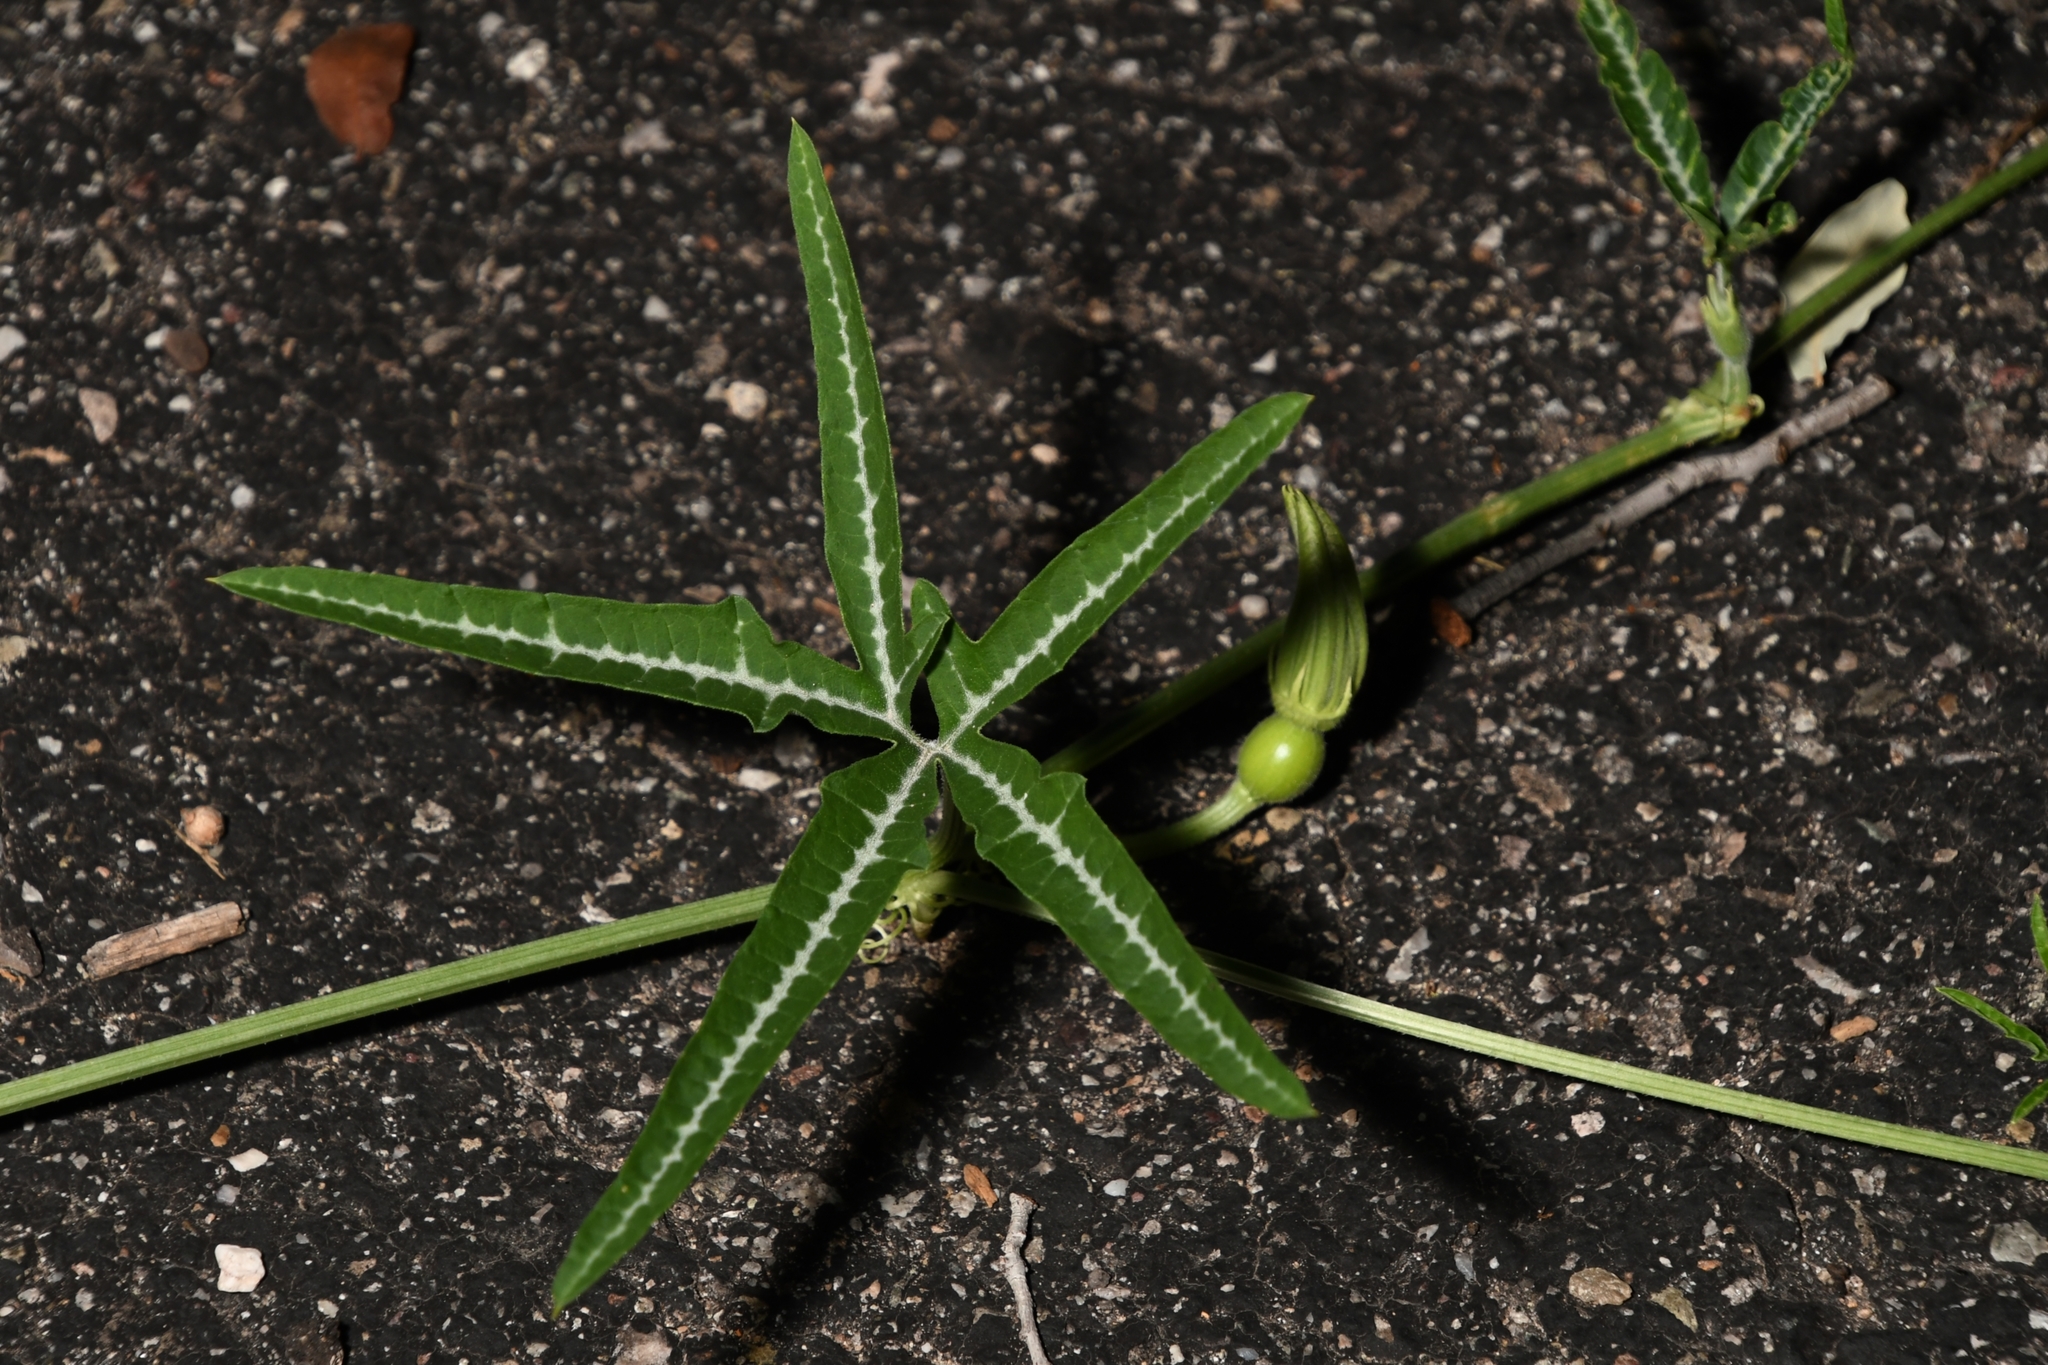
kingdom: Plantae
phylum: Tracheophyta
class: Magnoliopsida
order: Cucurbitales
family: Cucurbitaceae
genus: Cucurbita
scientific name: Cucurbita digitata
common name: Finger-leaf gourd
